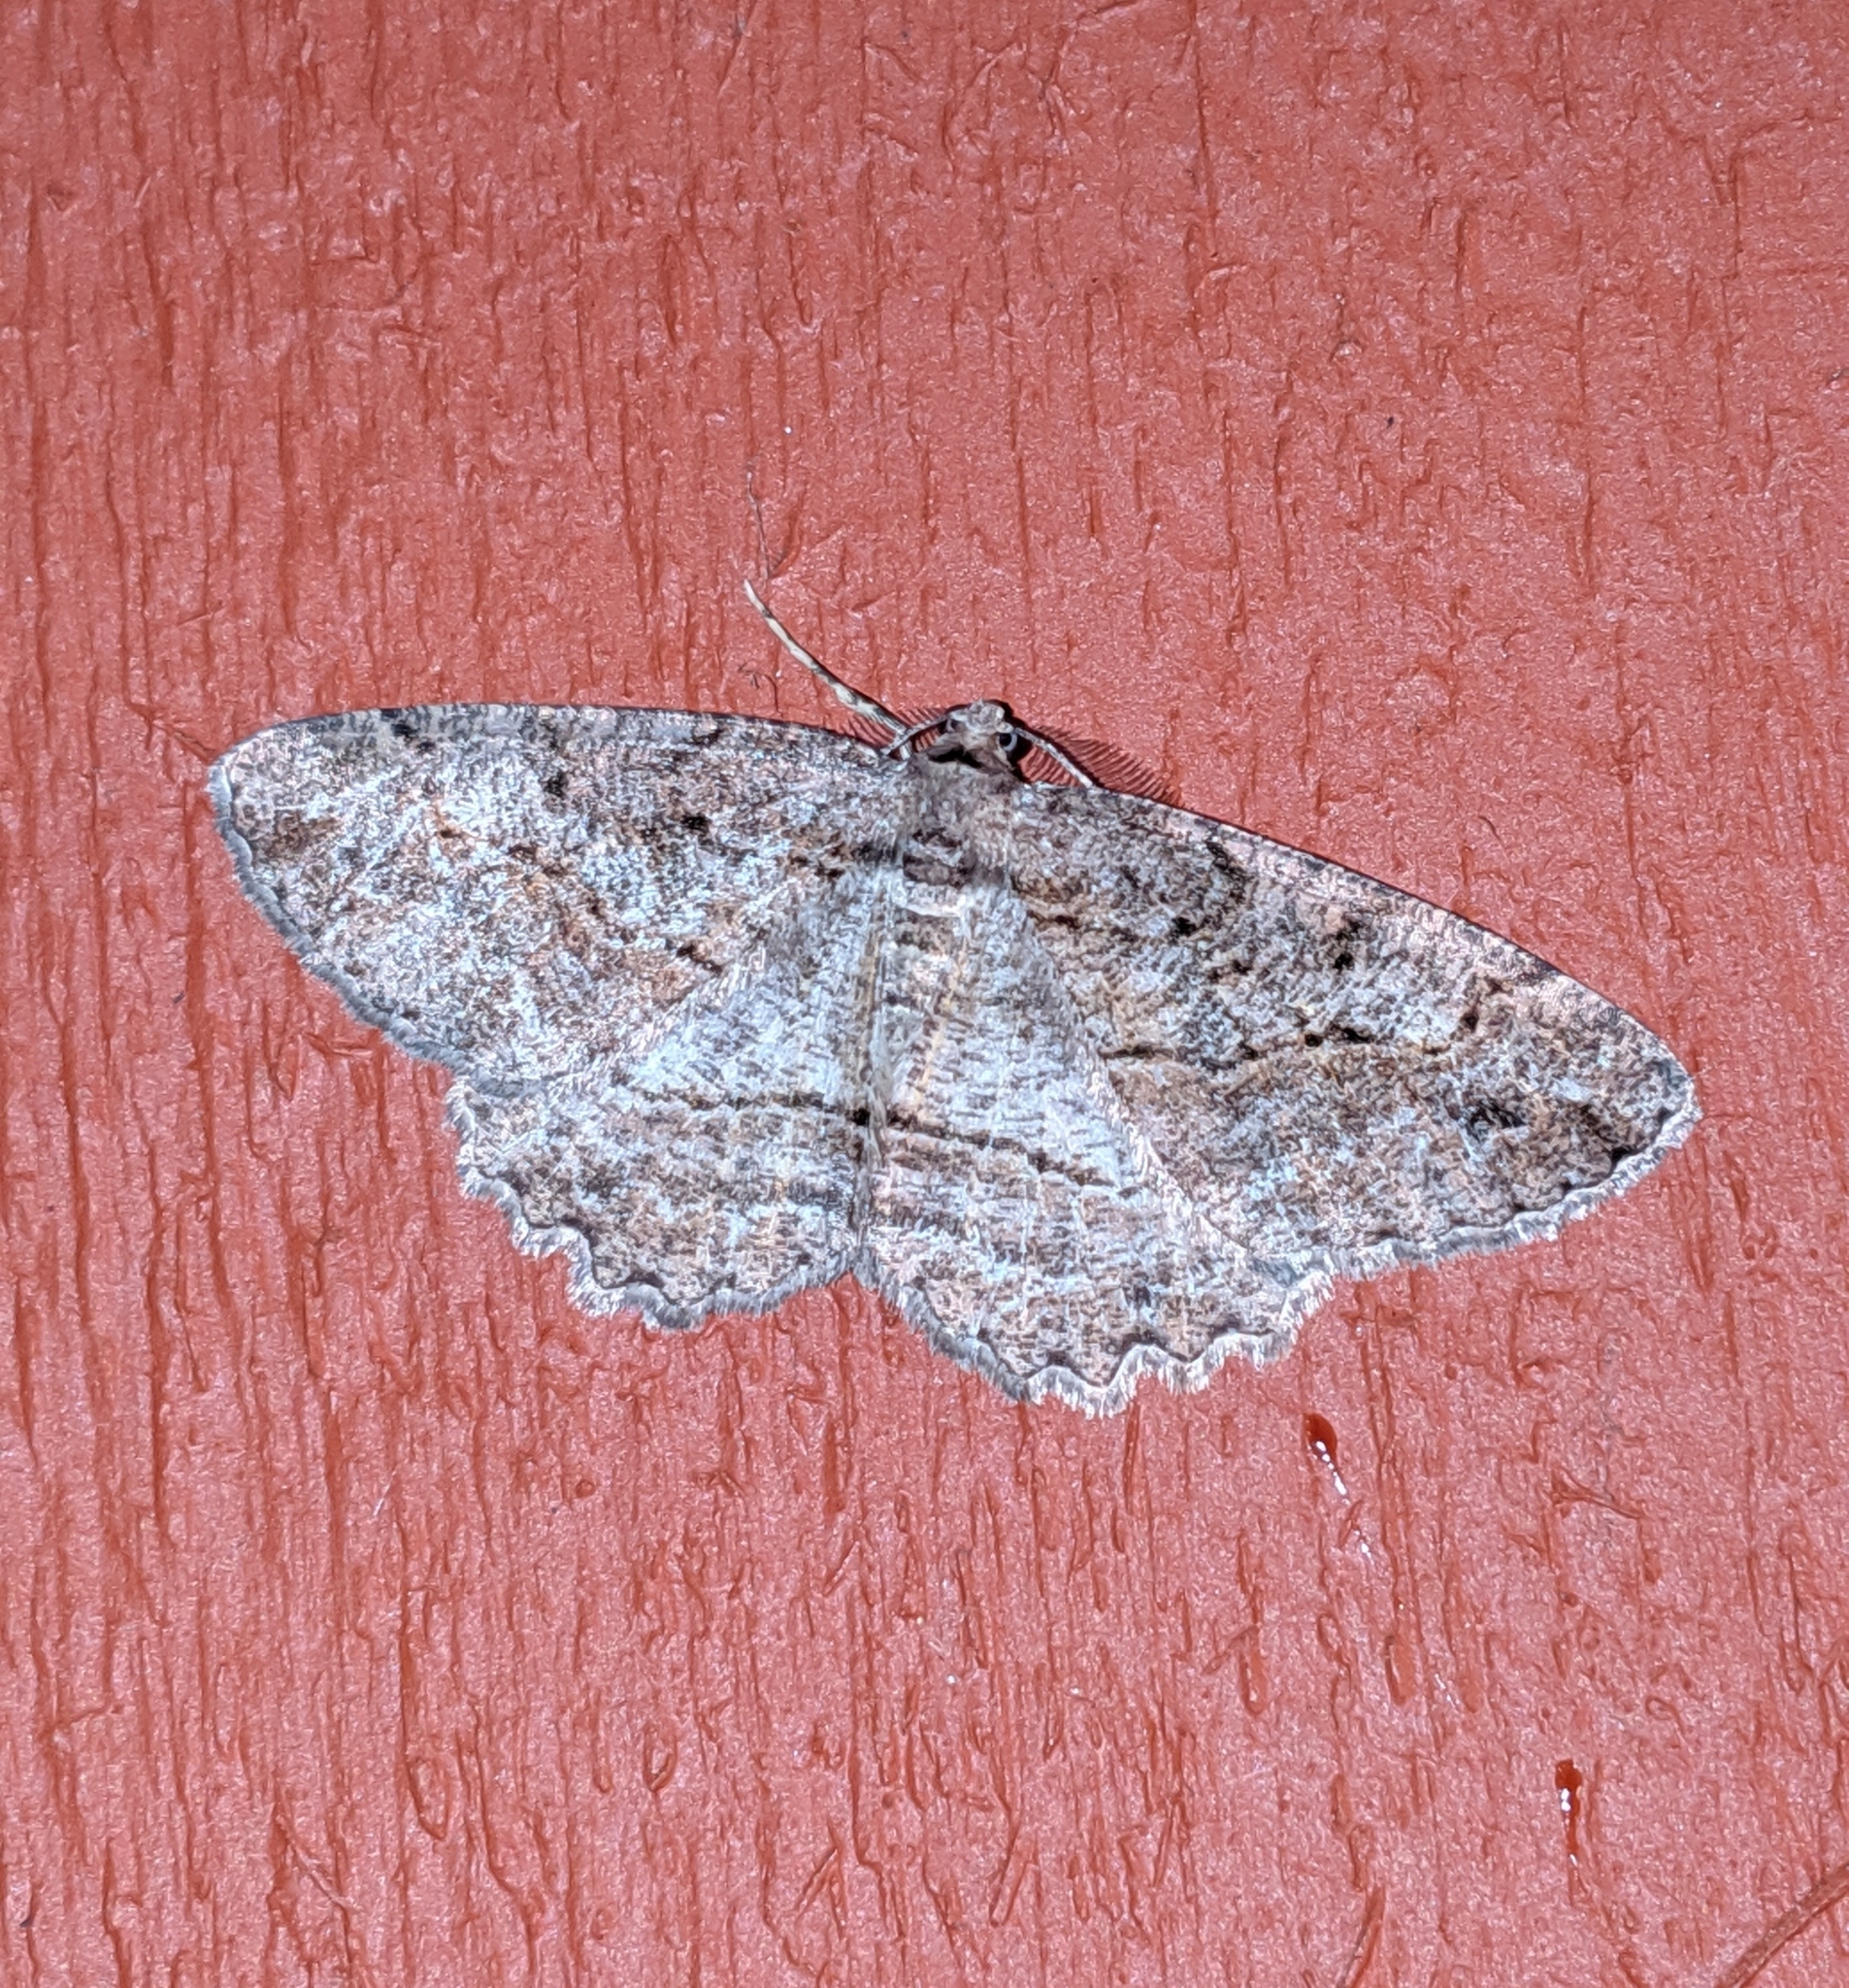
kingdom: Animalia
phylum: Arthropoda
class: Insecta
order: Lepidoptera
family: Geometridae
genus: Neoalcis
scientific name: Neoalcis californiaria
